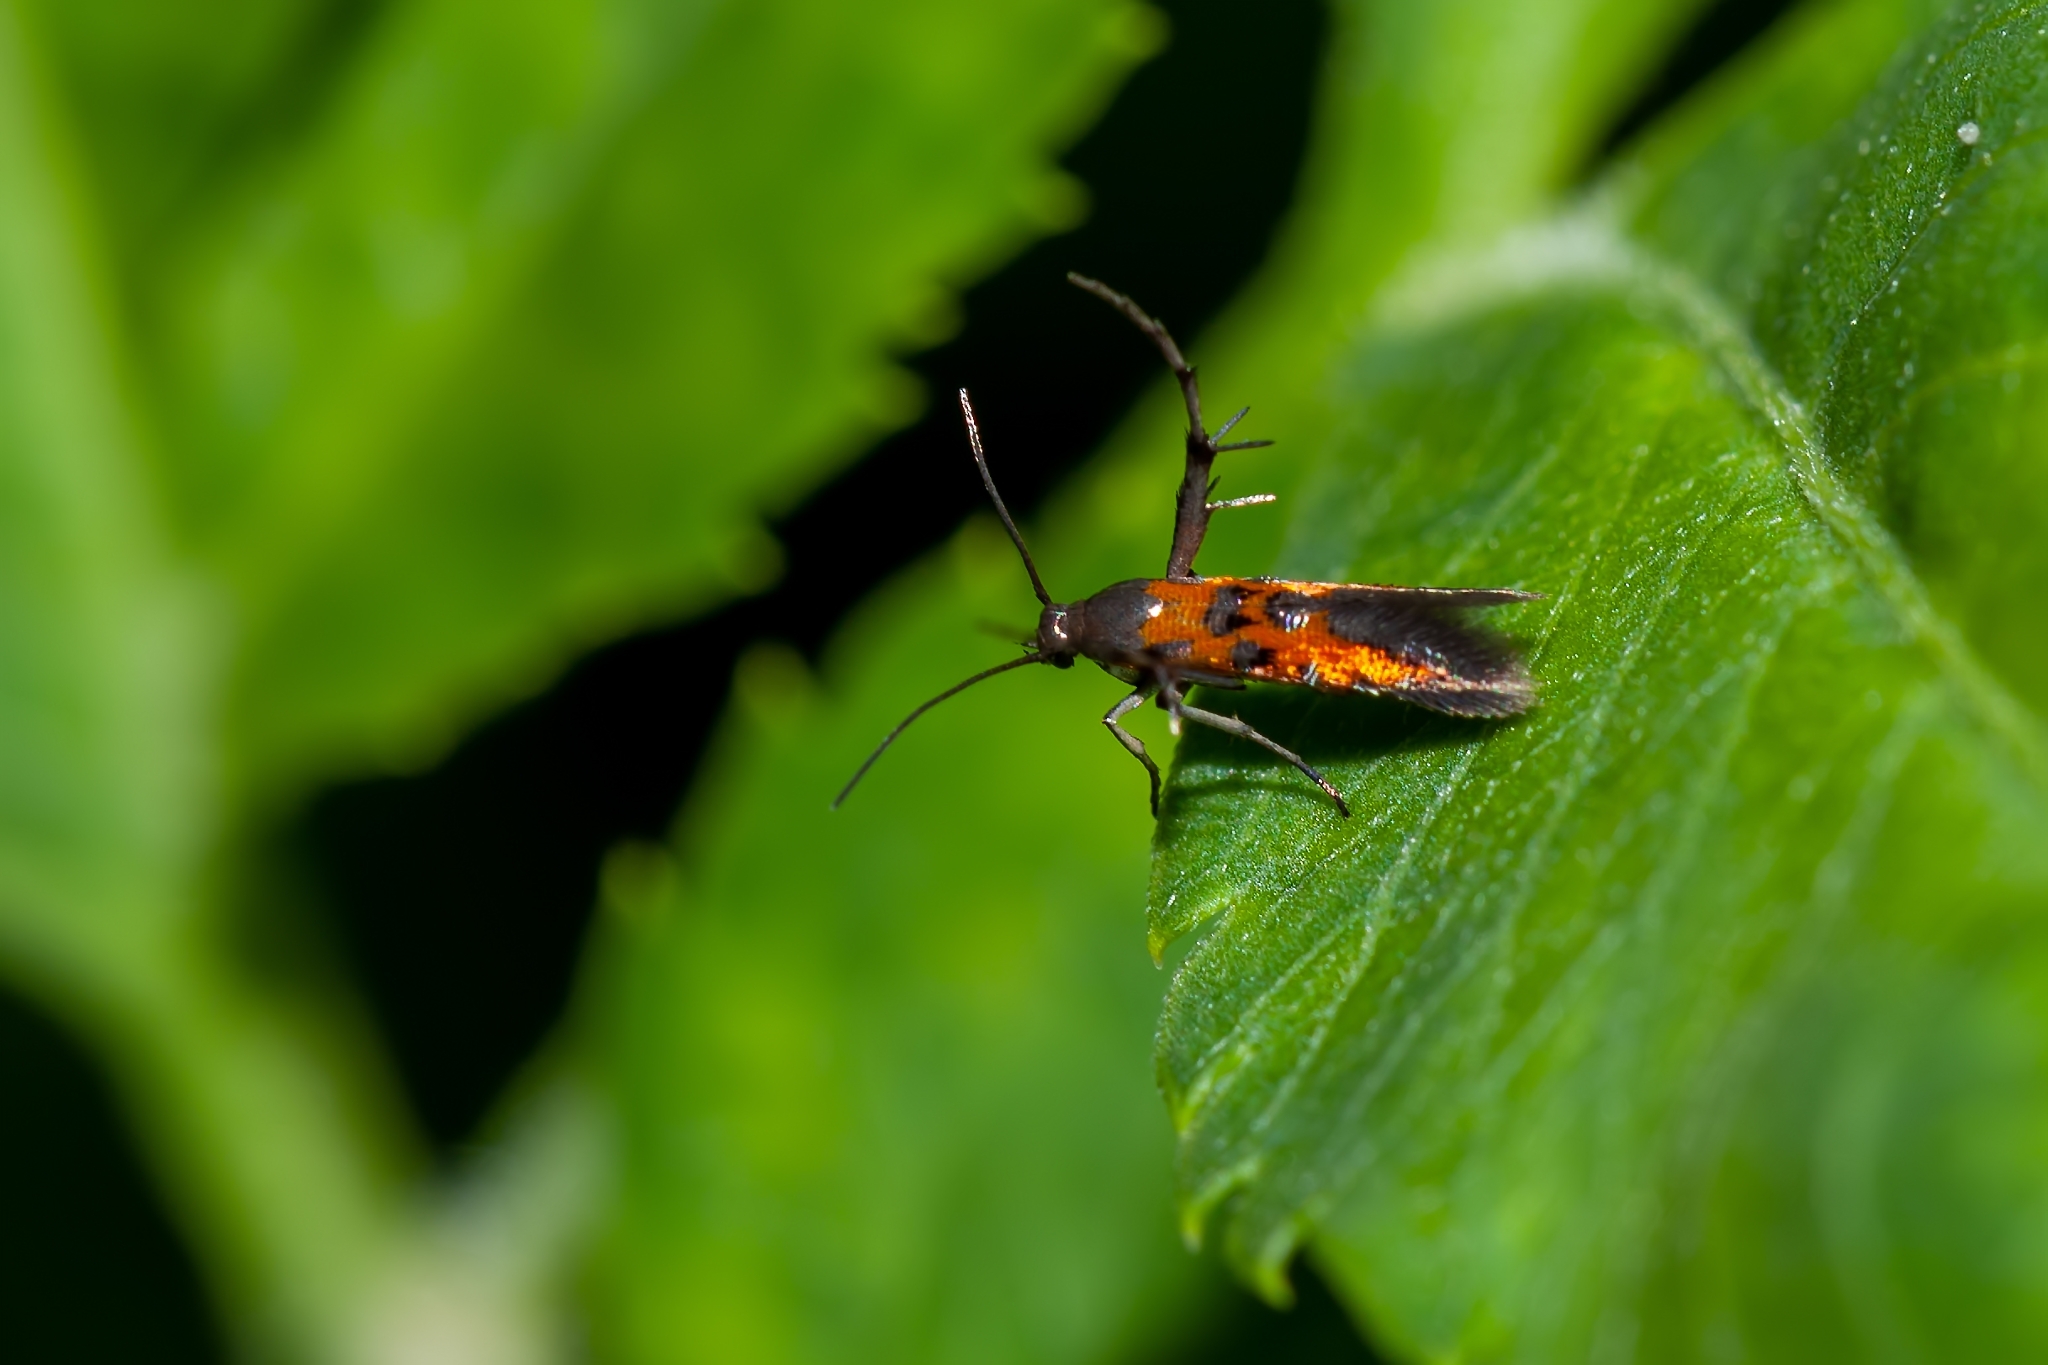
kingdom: Animalia
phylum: Arthropoda
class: Insecta
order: Lepidoptera
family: Heliodinidae
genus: Heliodines
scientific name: Heliodines
